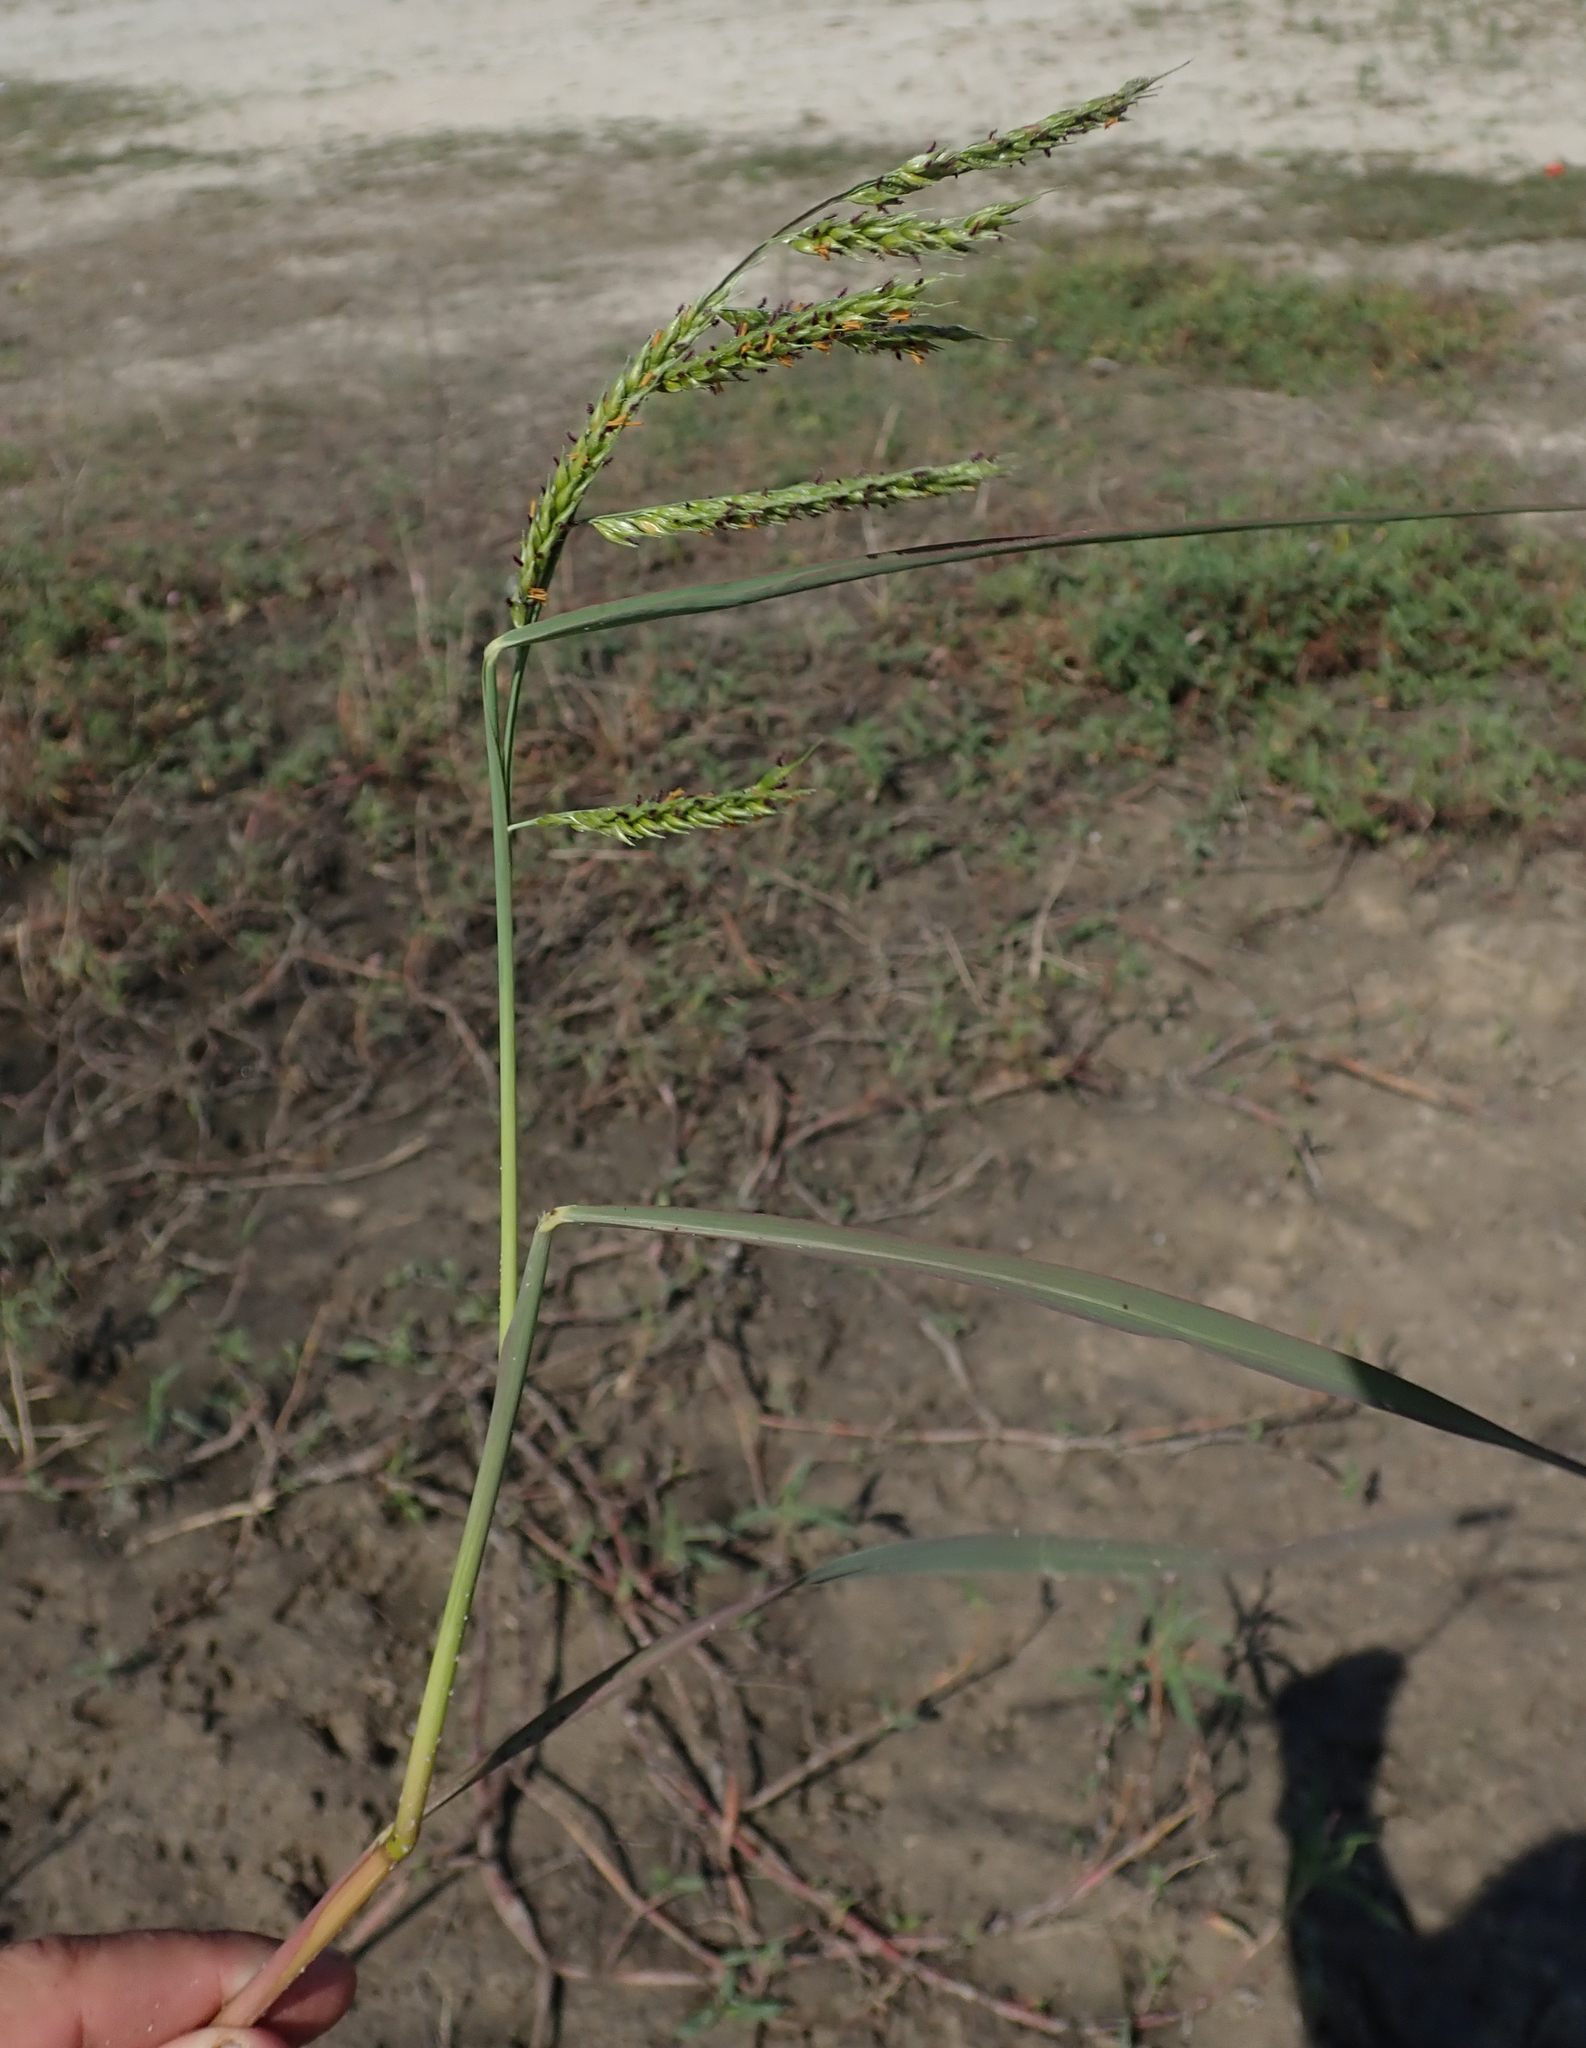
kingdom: Plantae
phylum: Tracheophyta
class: Liliopsida
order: Poales
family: Poaceae
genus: Urochloa
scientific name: Urochloa trichopus
